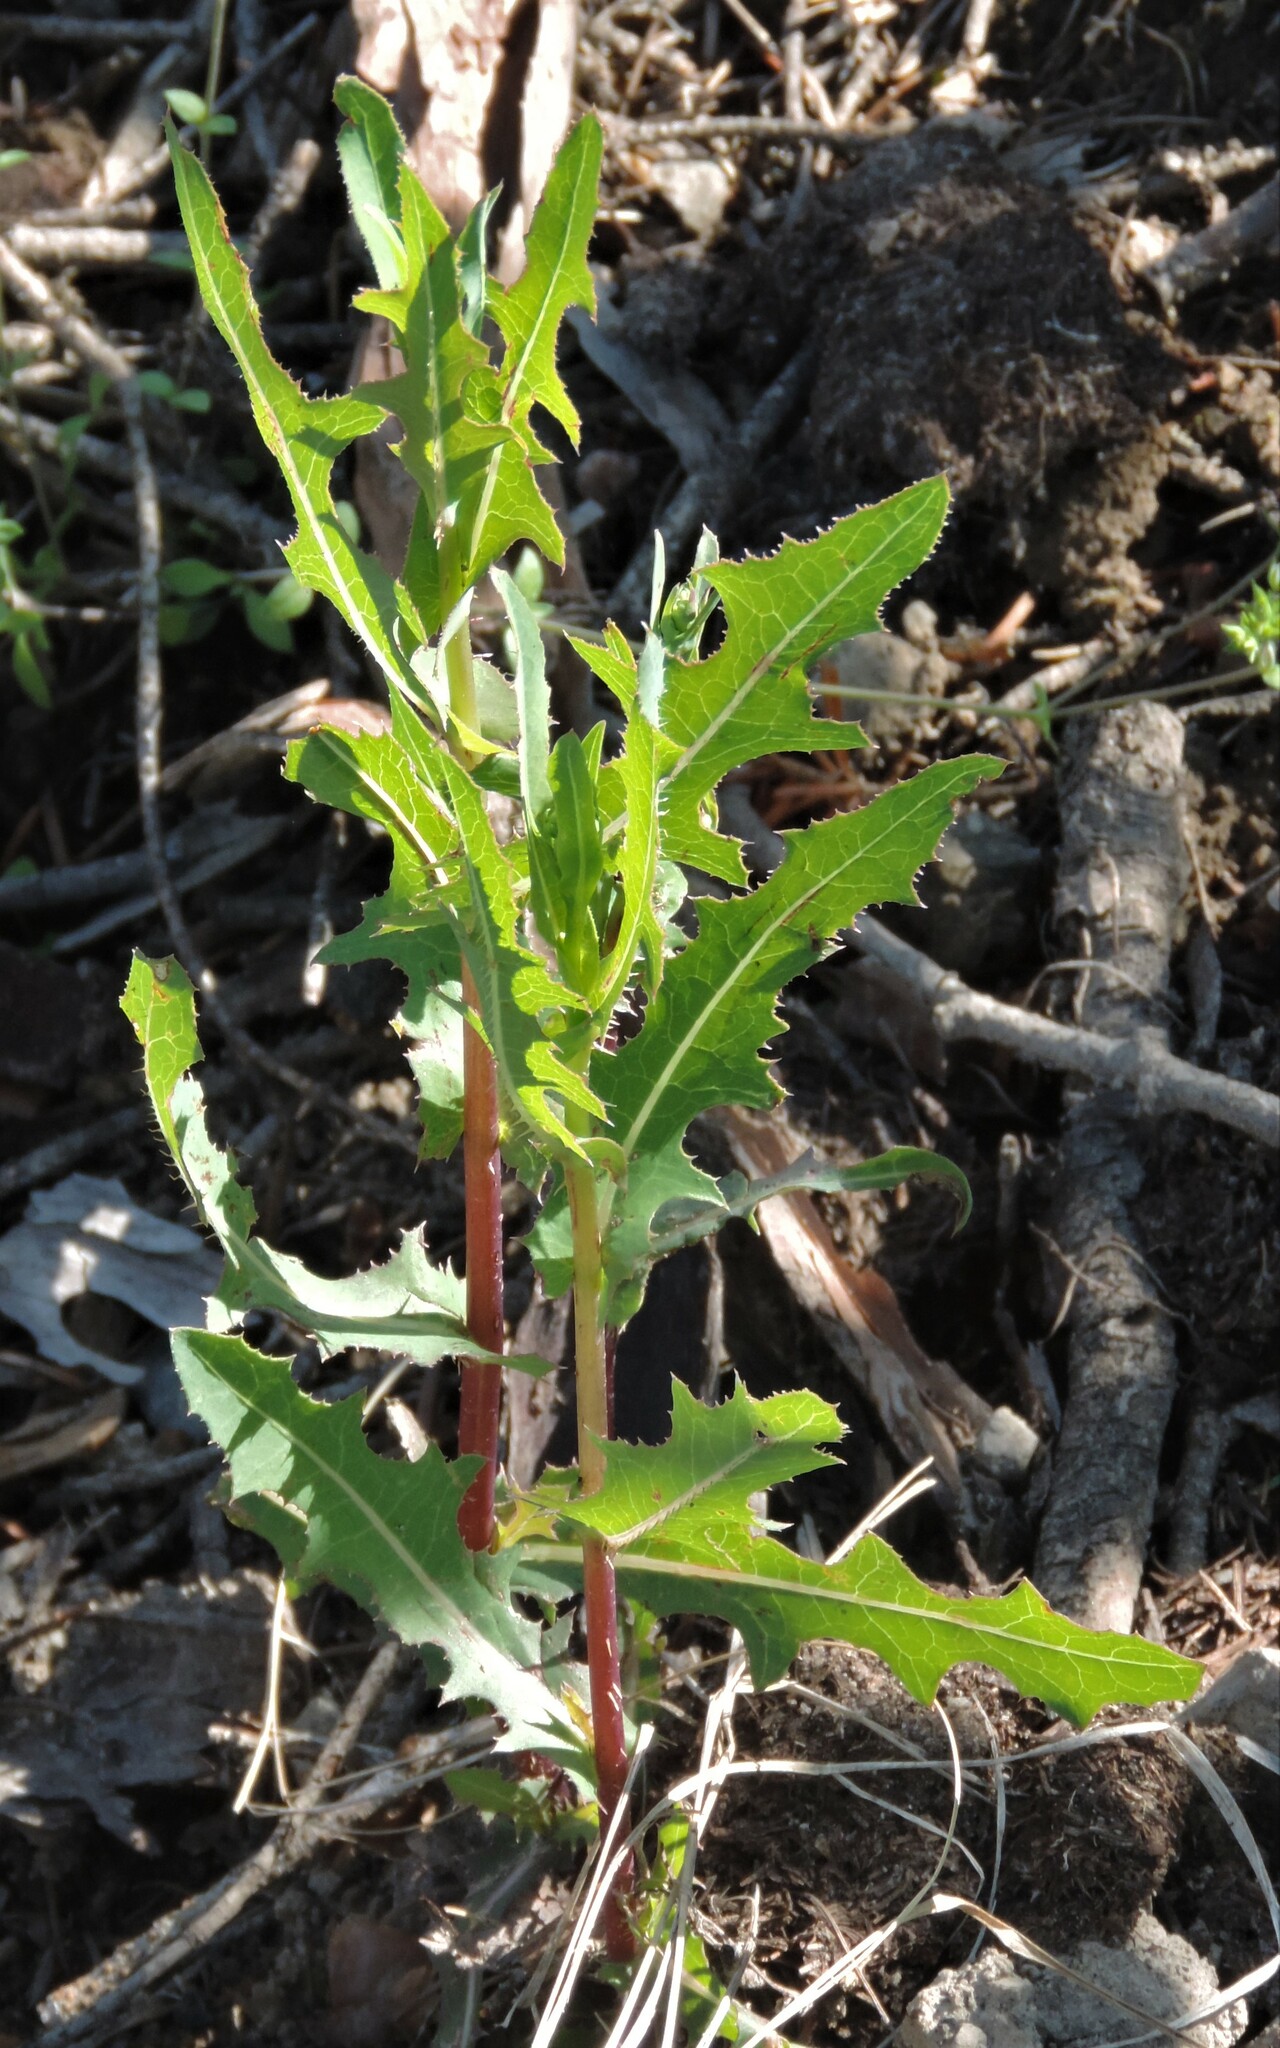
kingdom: Plantae
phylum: Tracheophyta
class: Magnoliopsida
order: Asterales
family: Asteraceae
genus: Lactuca
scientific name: Lactuca serriola
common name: Prickly lettuce
